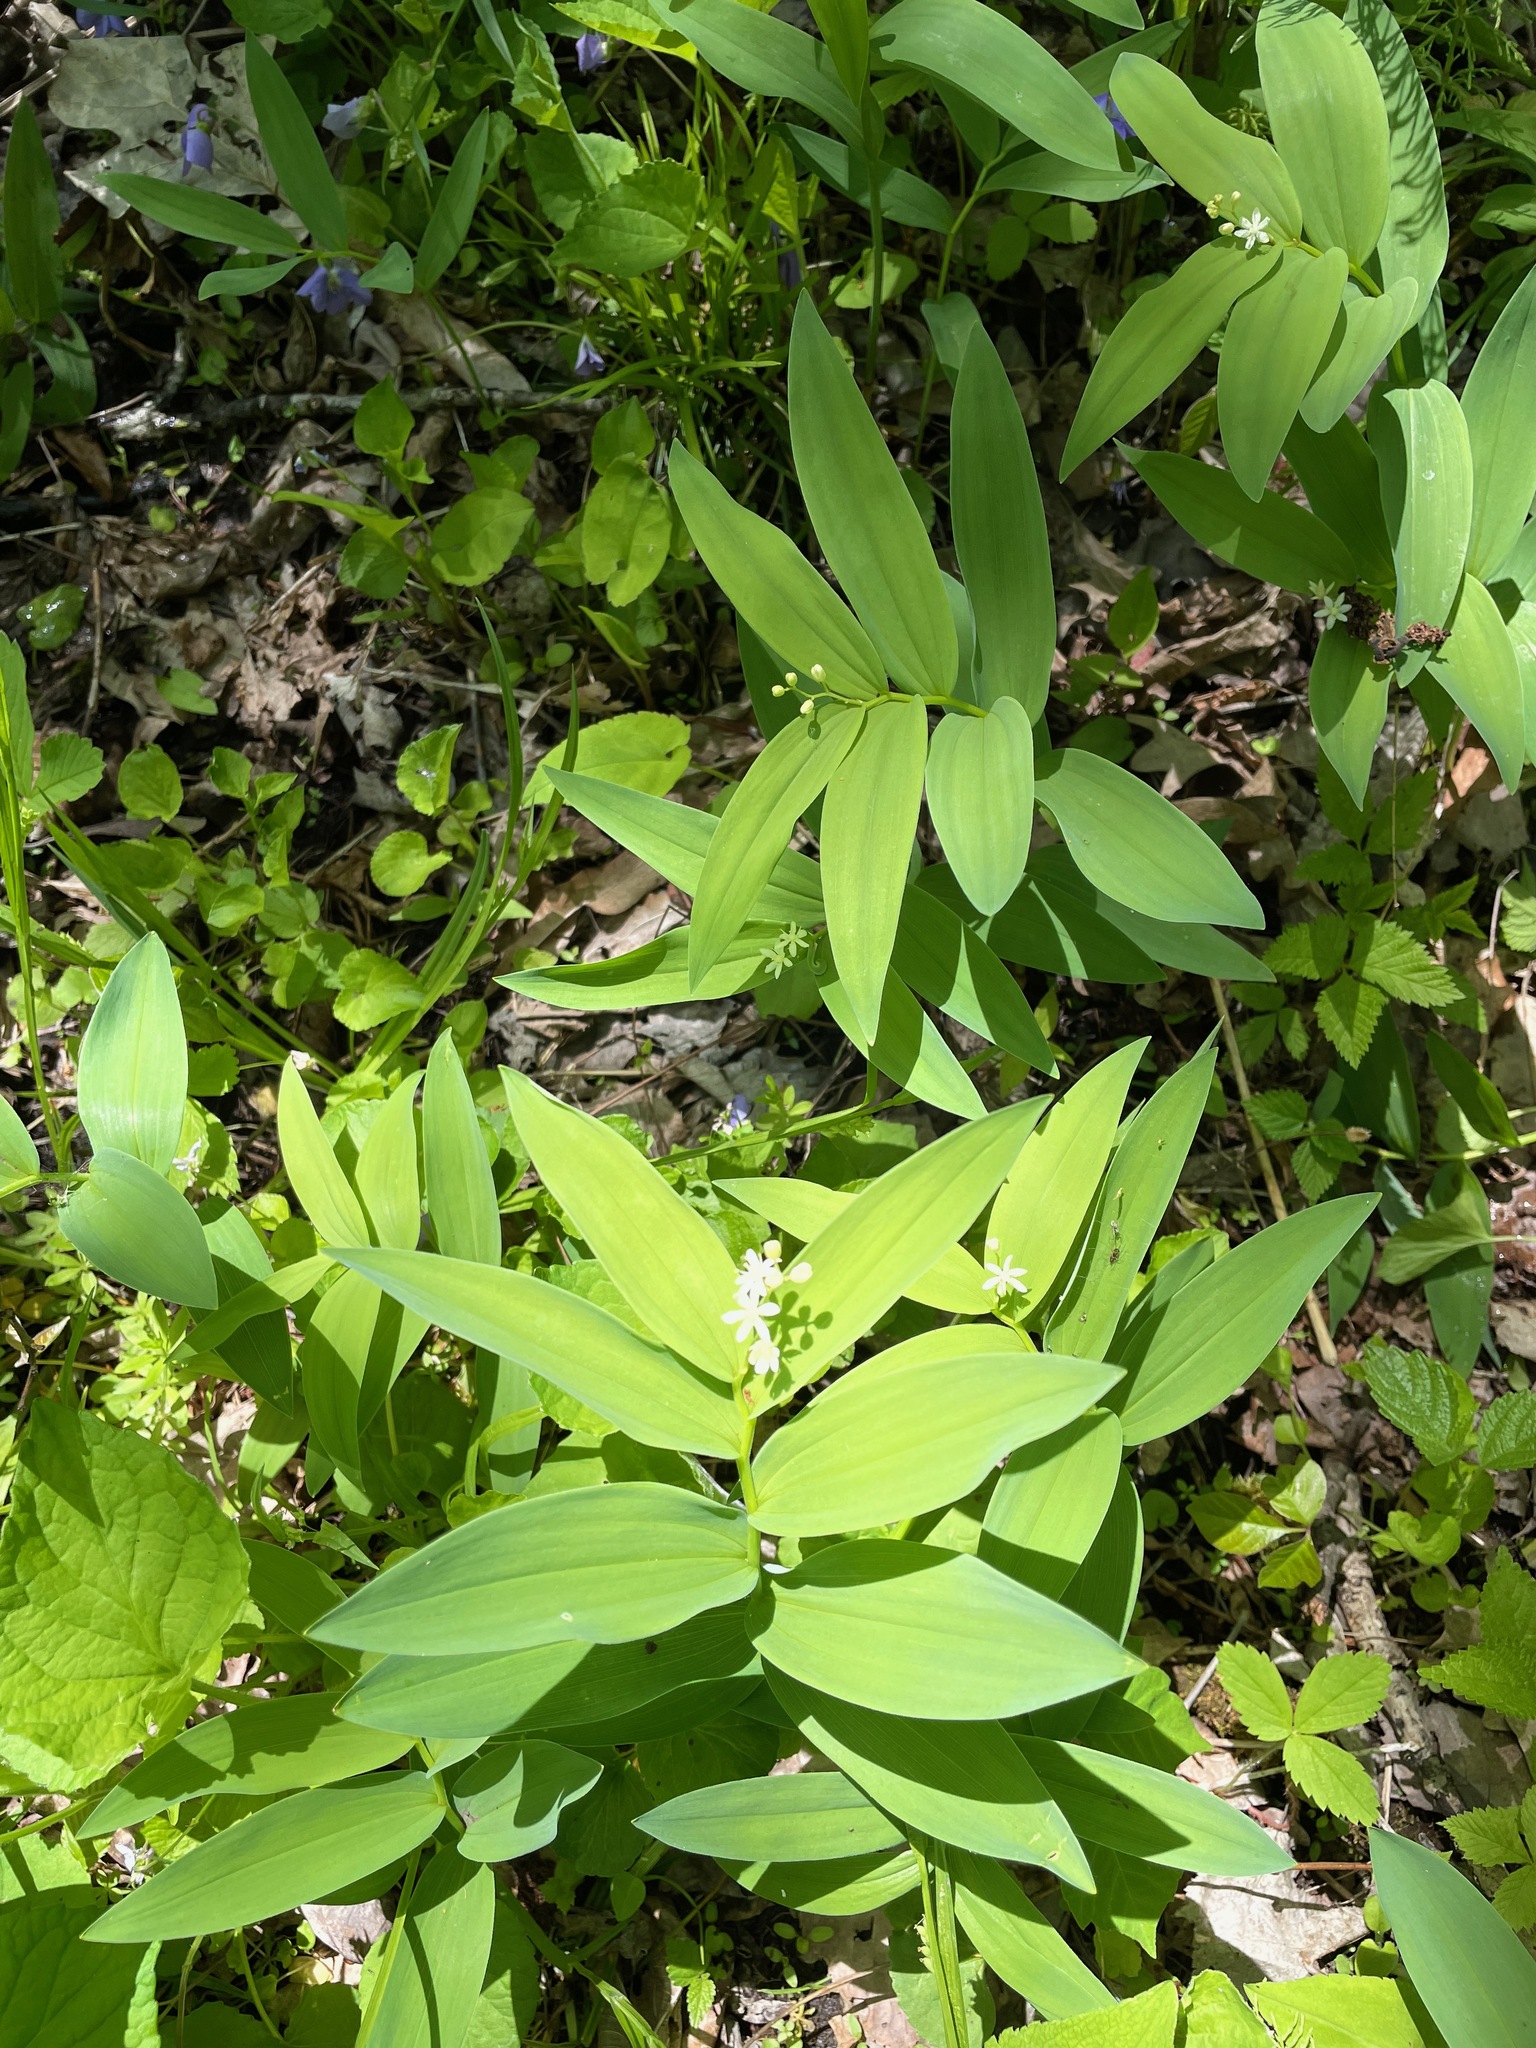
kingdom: Plantae
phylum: Tracheophyta
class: Liliopsida
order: Asparagales
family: Asparagaceae
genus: Maianthemum
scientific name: Maianthemum stellatum
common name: Little false solomon's seal
